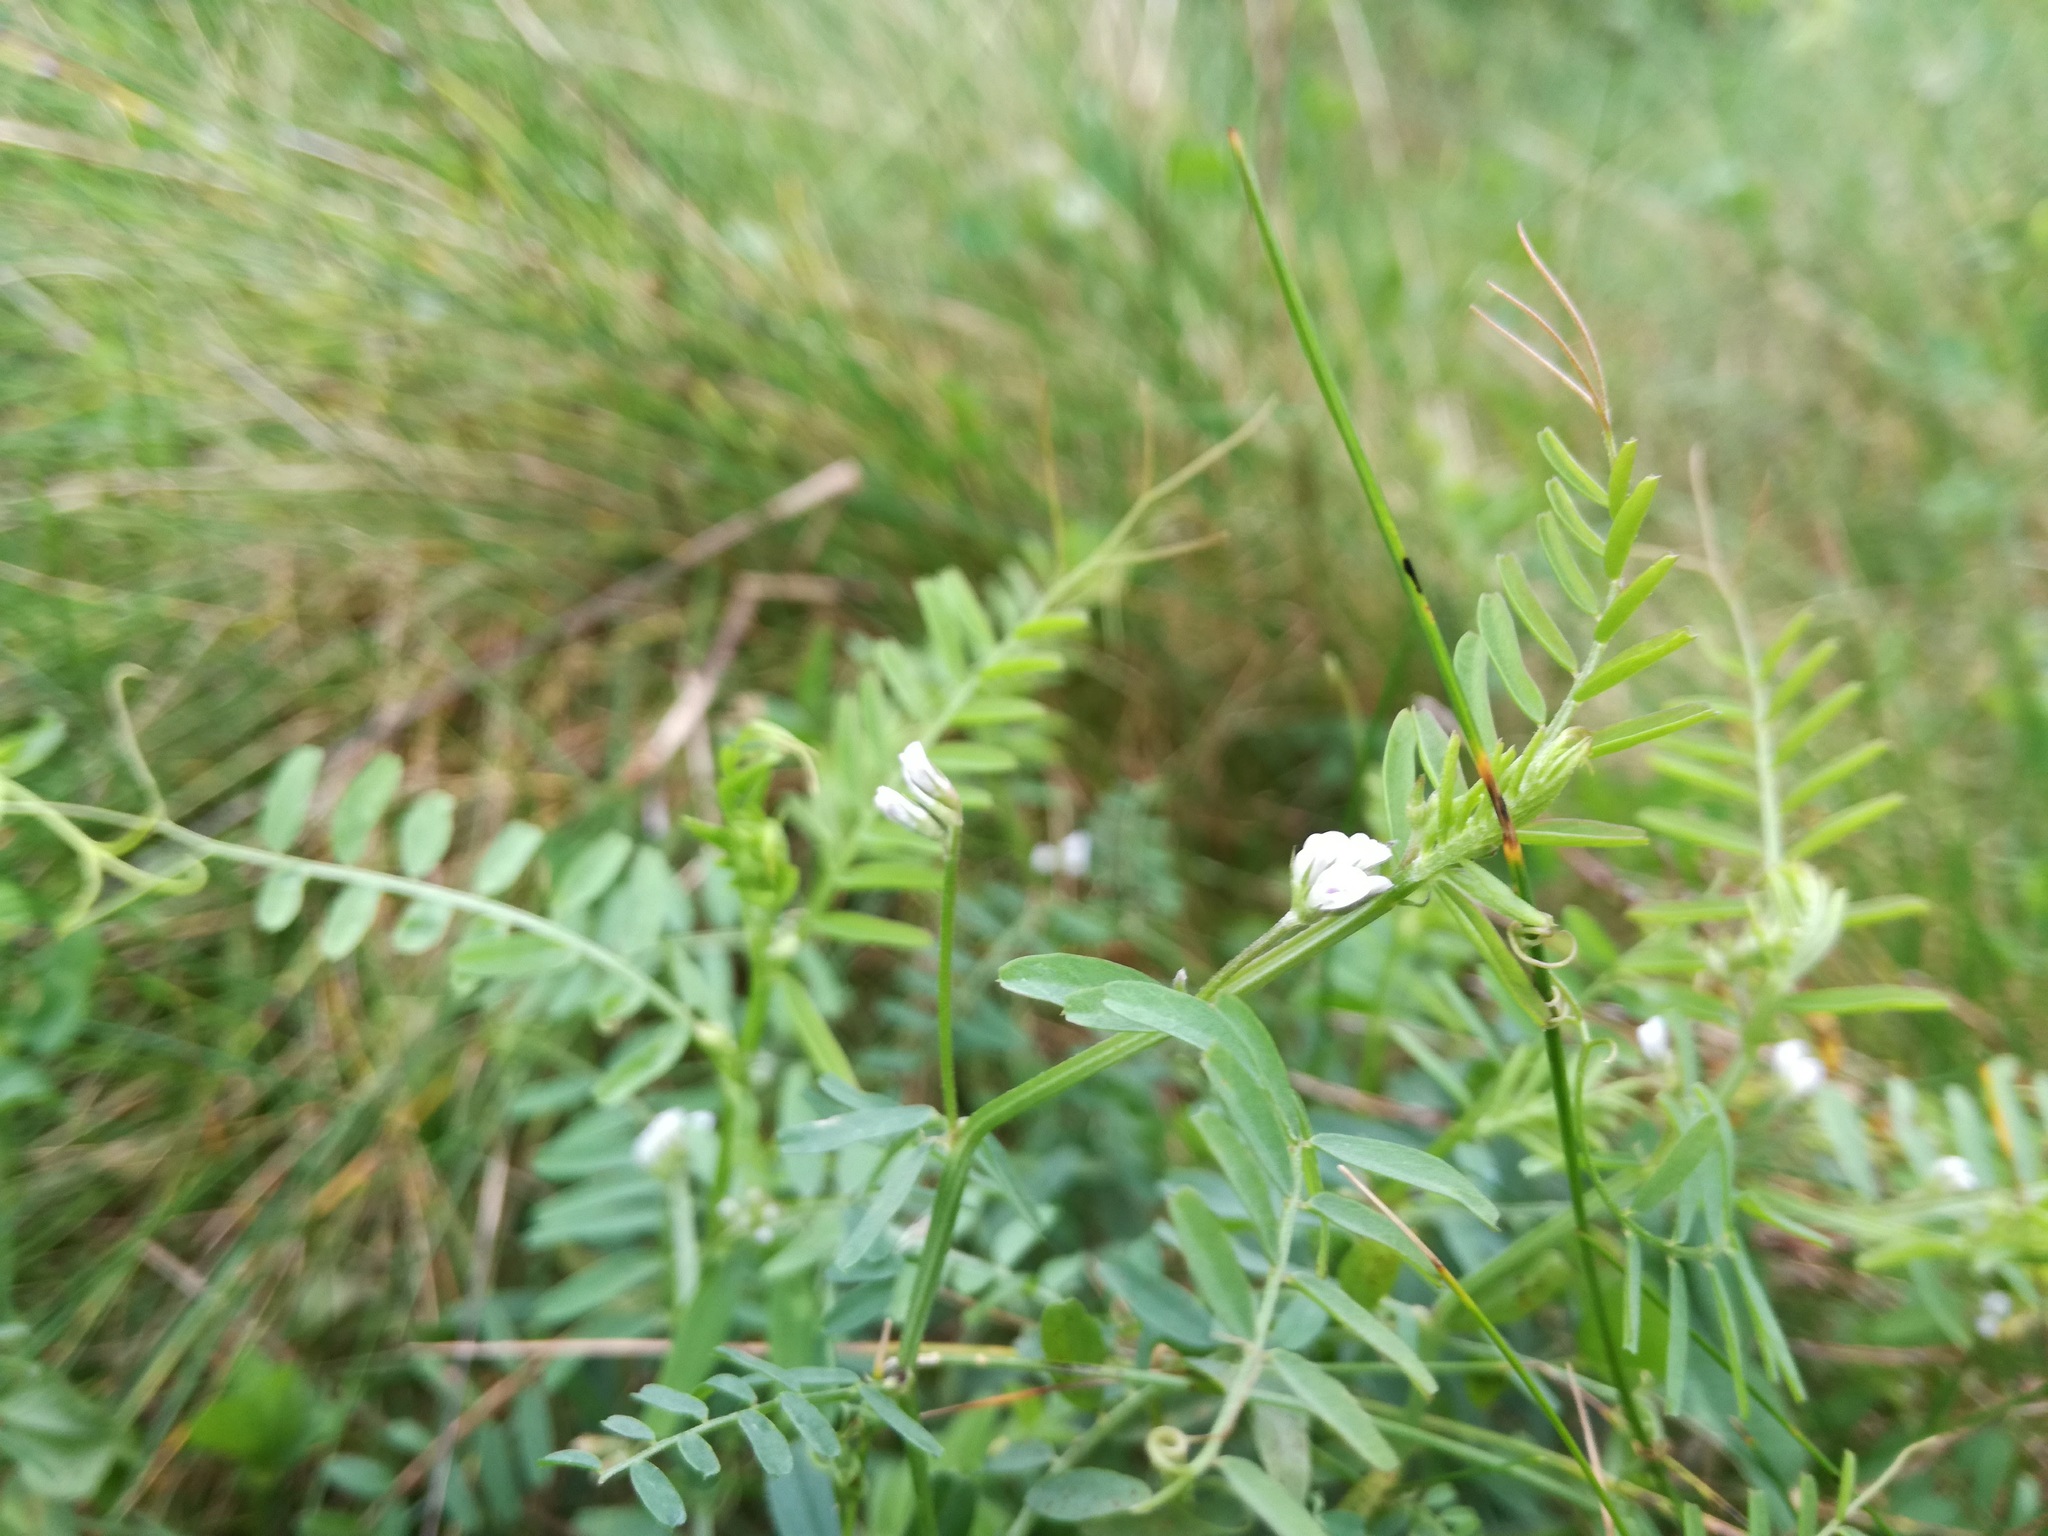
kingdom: Plantae
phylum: Tracheophyta
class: Magnoliopsida
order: Fabales
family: Fabaceae
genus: Vicia
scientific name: Vicia hirsuta
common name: Tiny vetch
